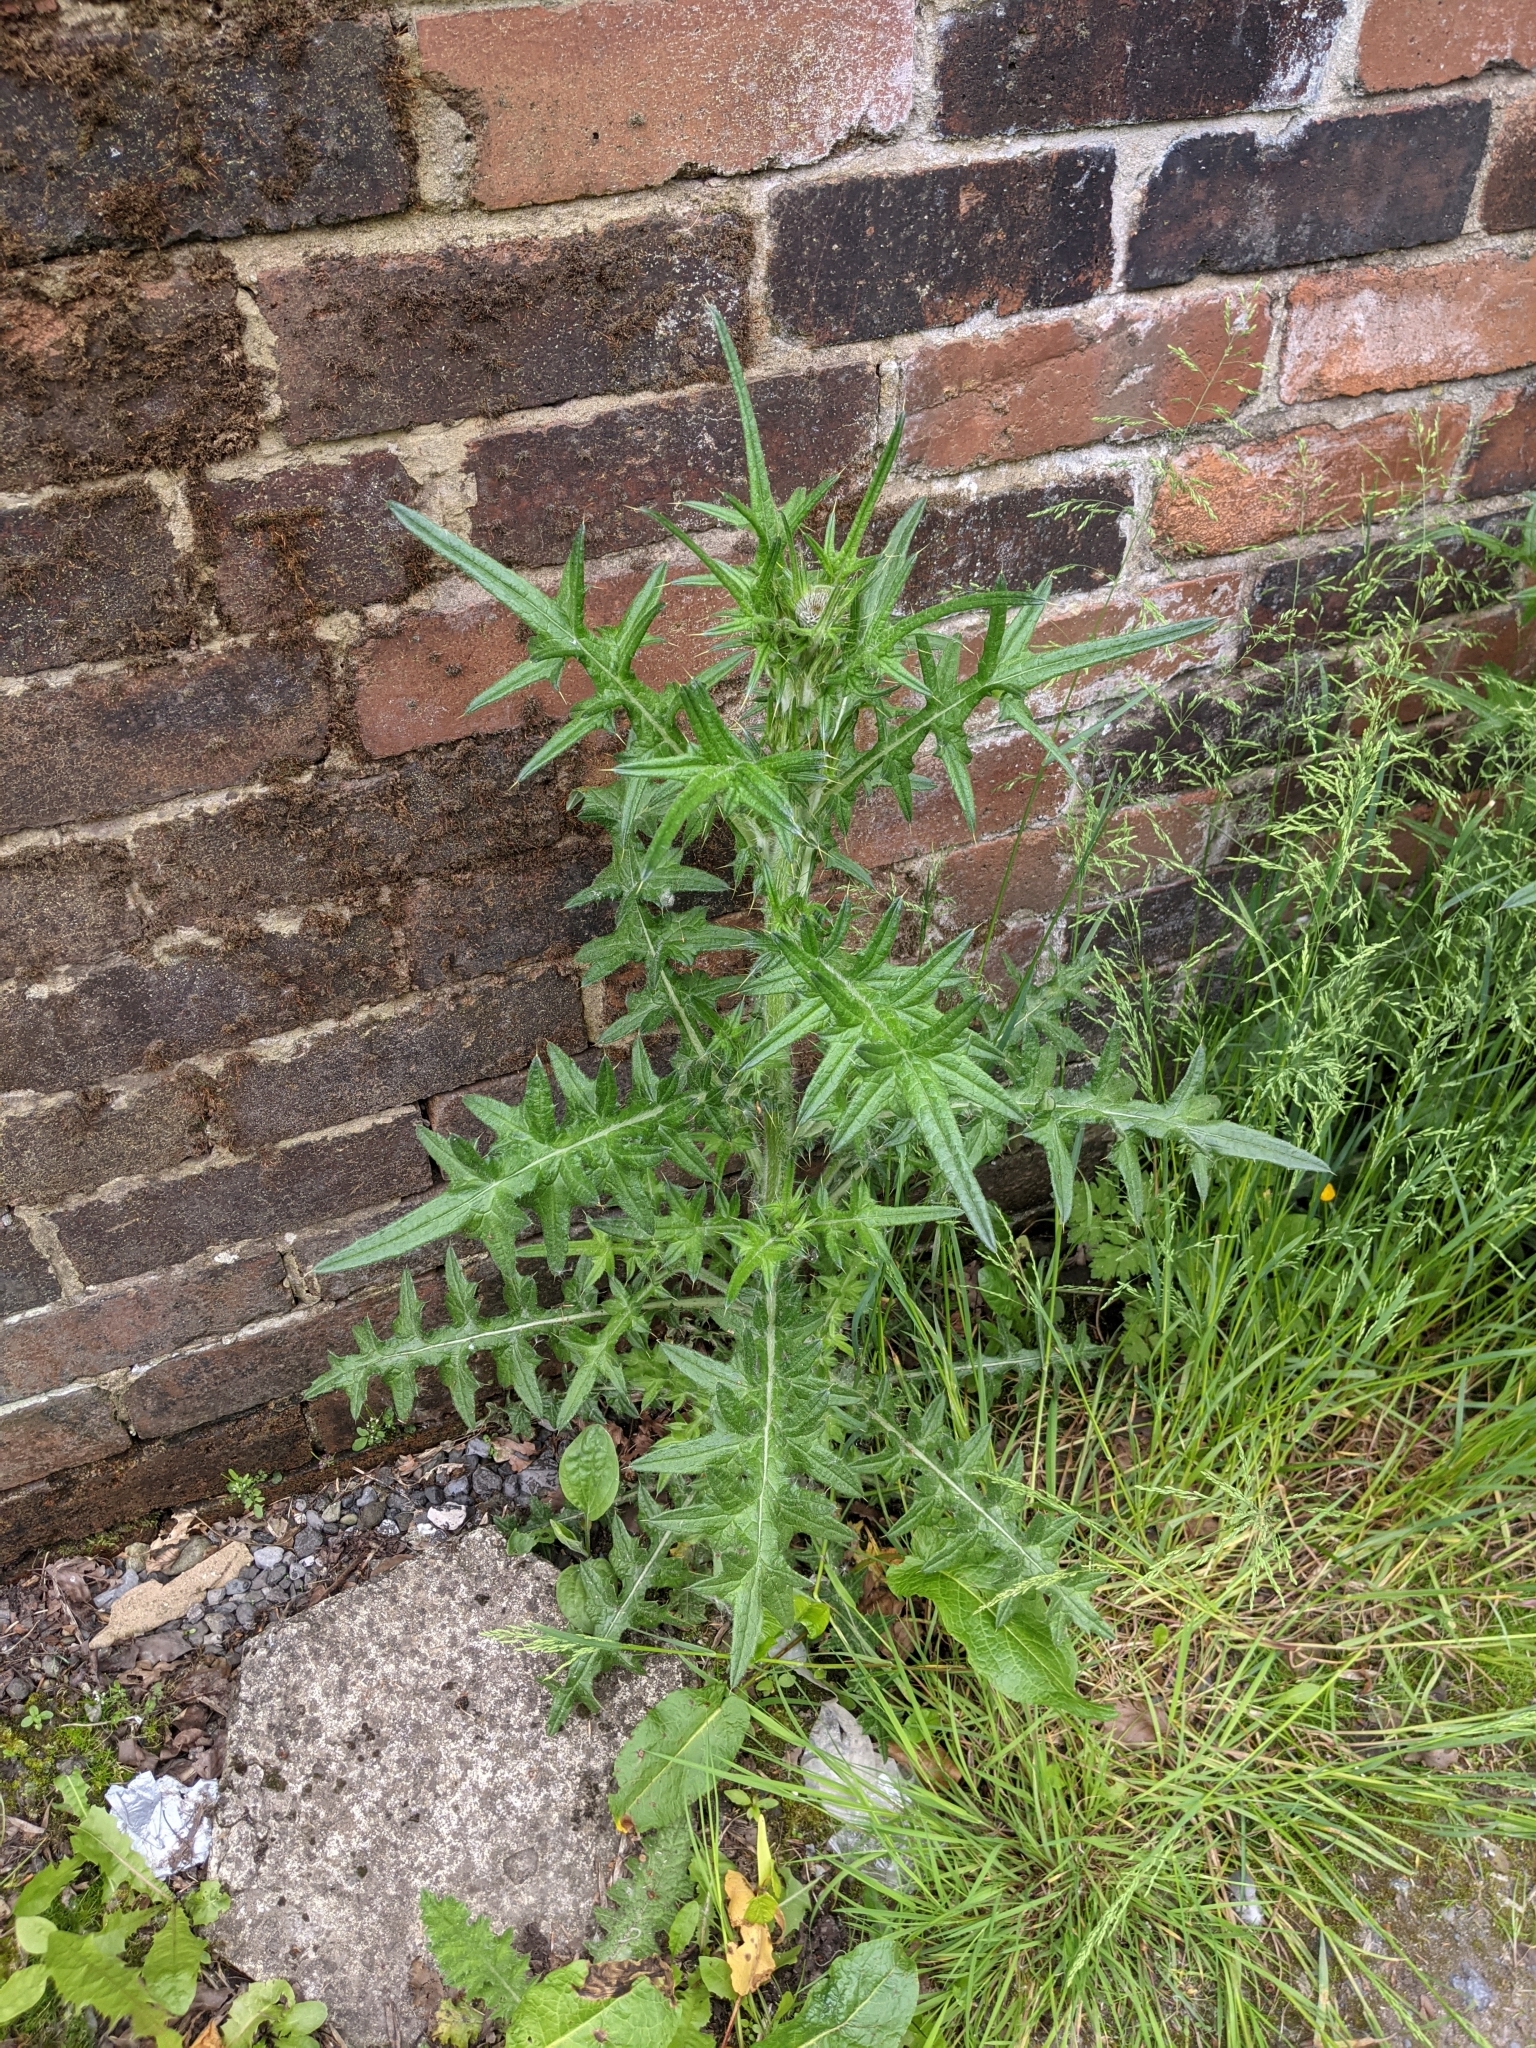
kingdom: Plantae
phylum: Tracheophyta
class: Magnoliopsida
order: Asterales
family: Asteraceae
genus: Cirsium
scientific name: Cirsium vulgare
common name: Bull thistle
